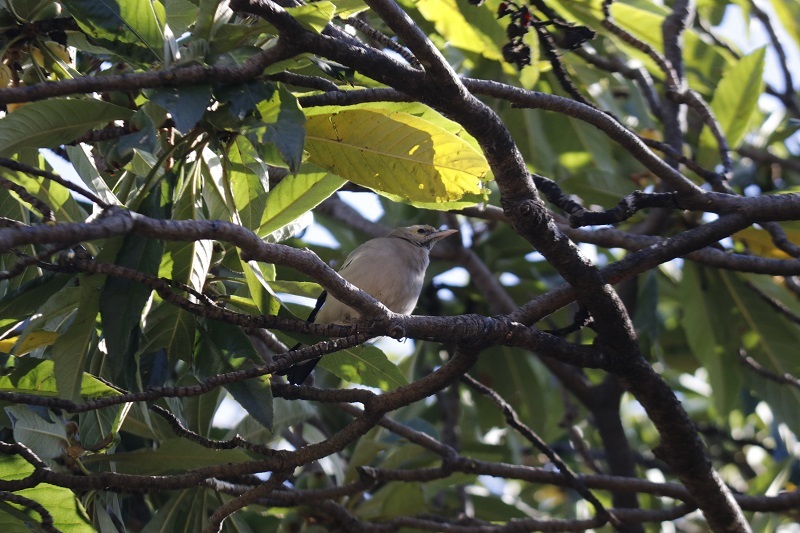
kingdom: Animalia
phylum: Chordata
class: Aves
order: Passeriformes
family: Sturnidae
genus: Creatophora
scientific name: Creatophora cinerea
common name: Wattled starling
